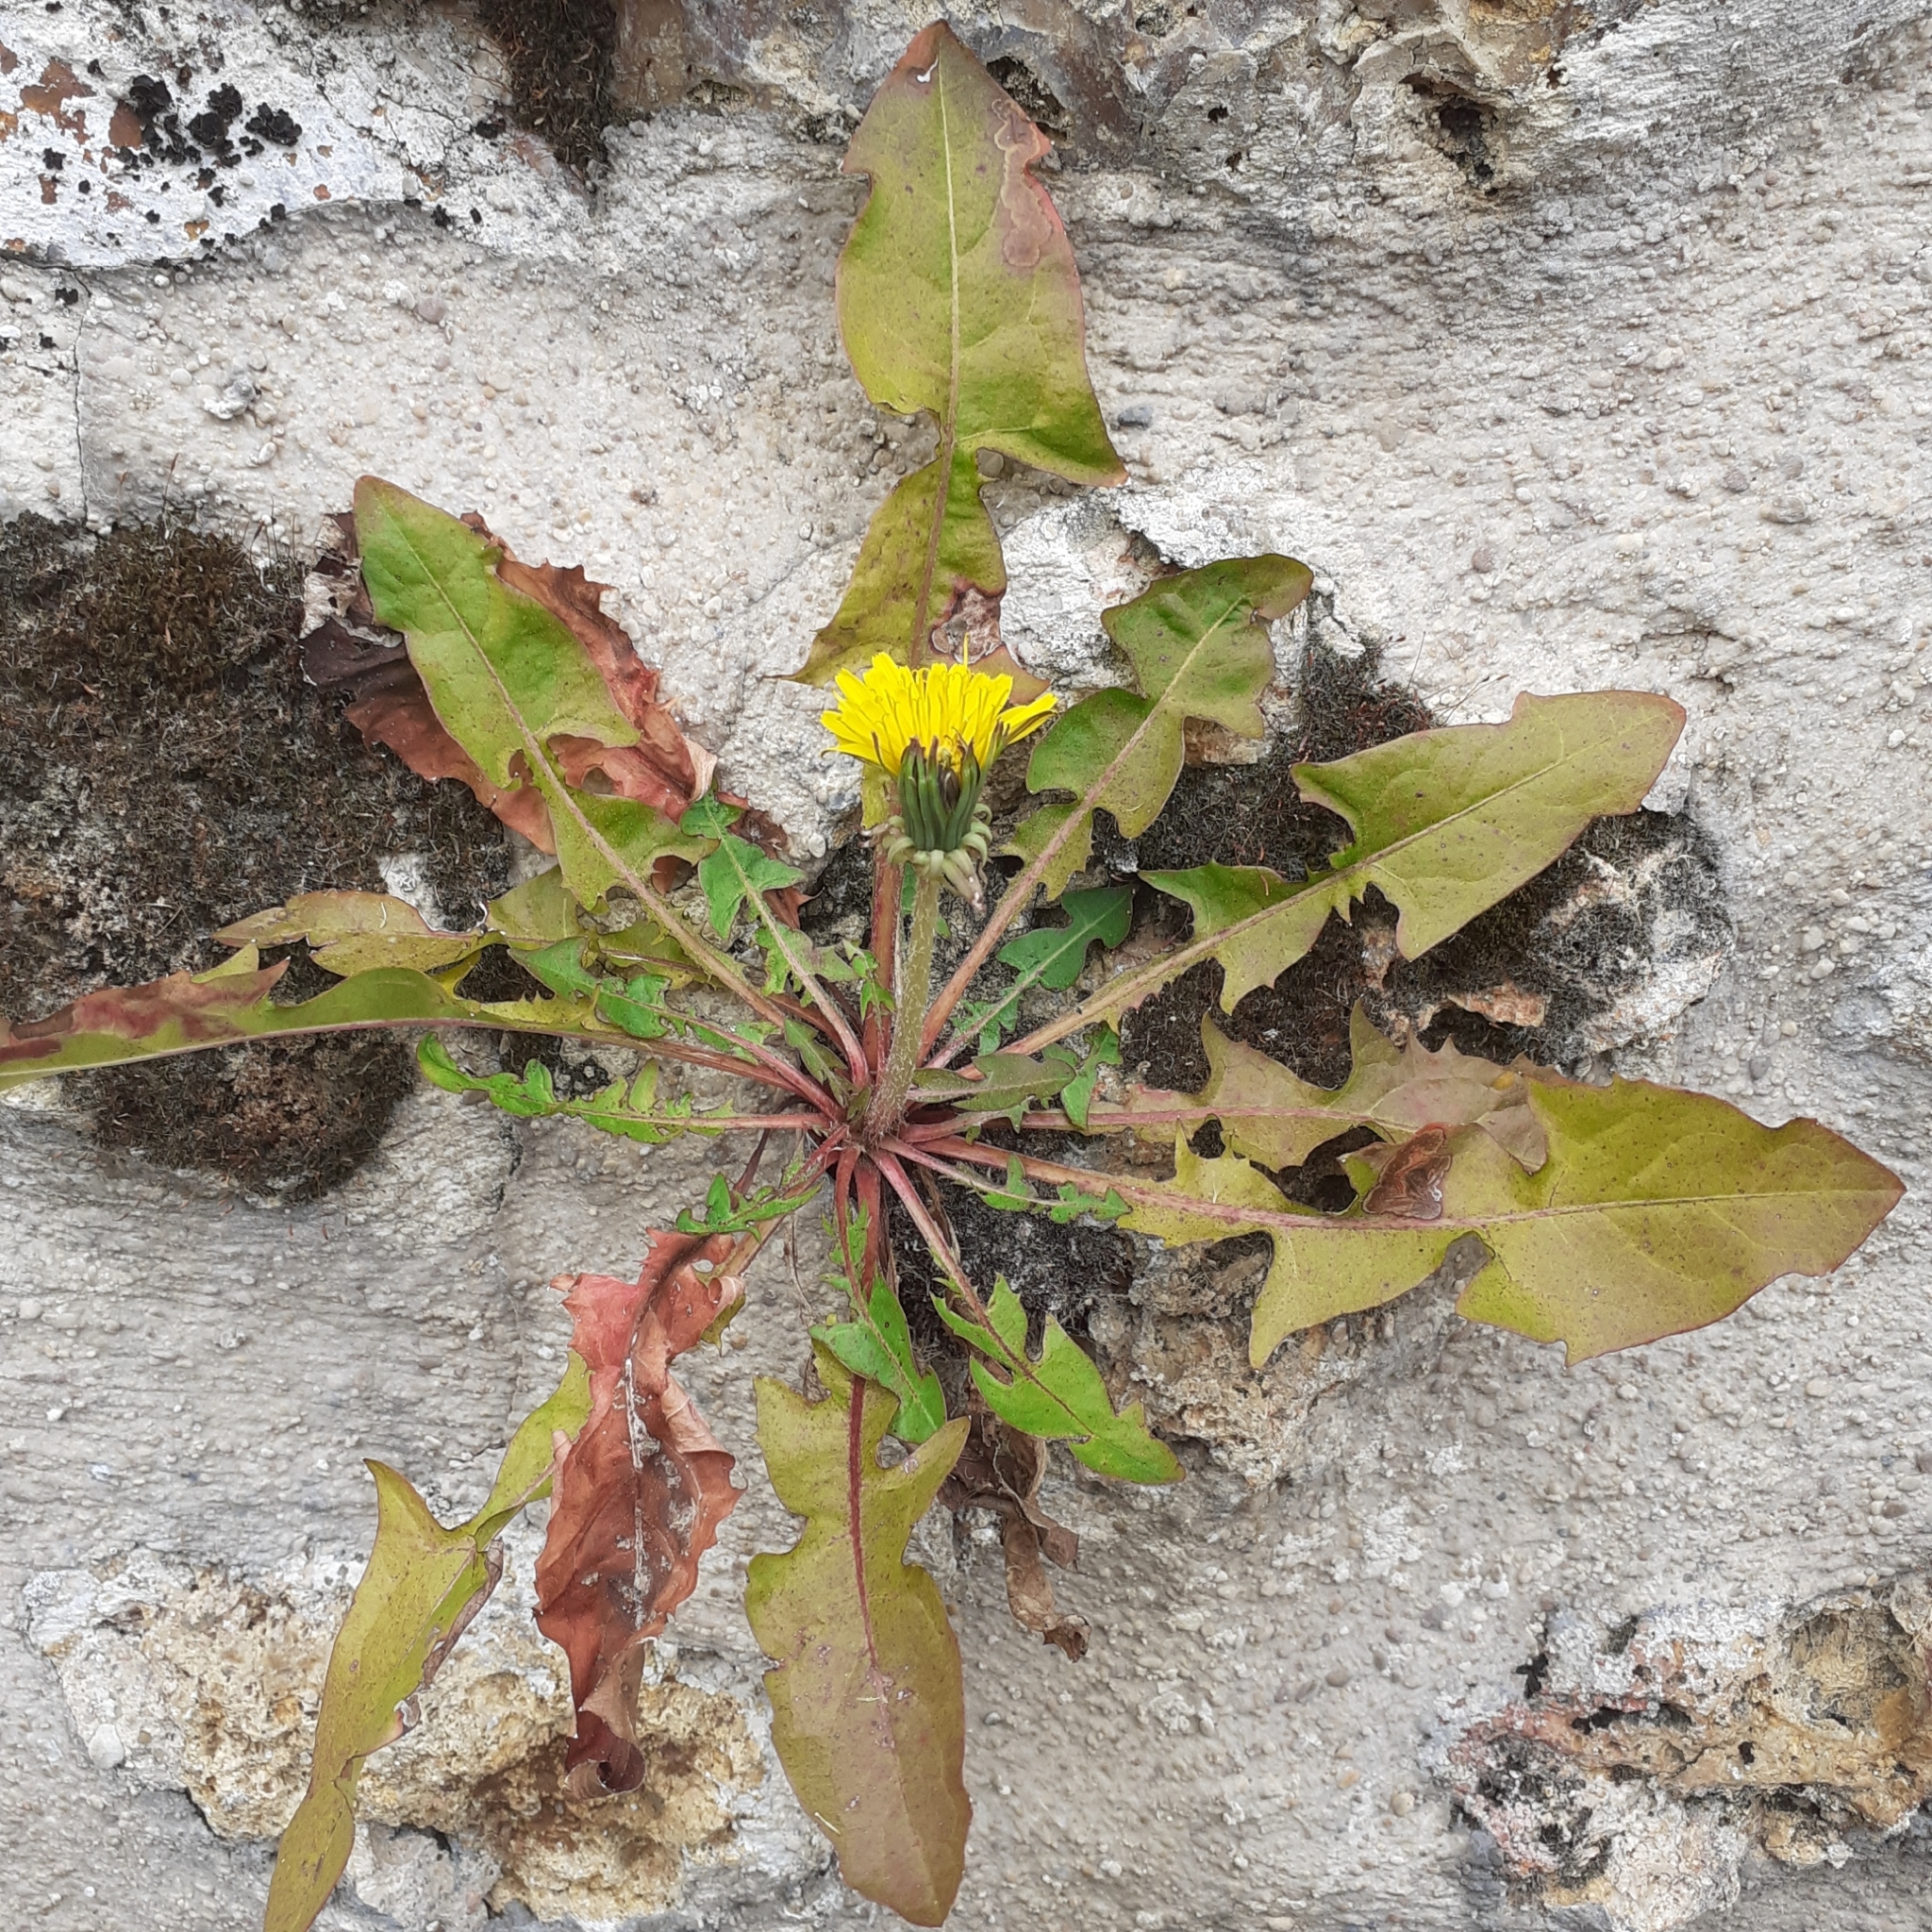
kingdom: Plantae
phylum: Tracheophyta
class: Magnoliopsida
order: Asterales
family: Asteraceae
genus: Taraxacum
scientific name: Taraxacum officinale
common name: Common dandelion
